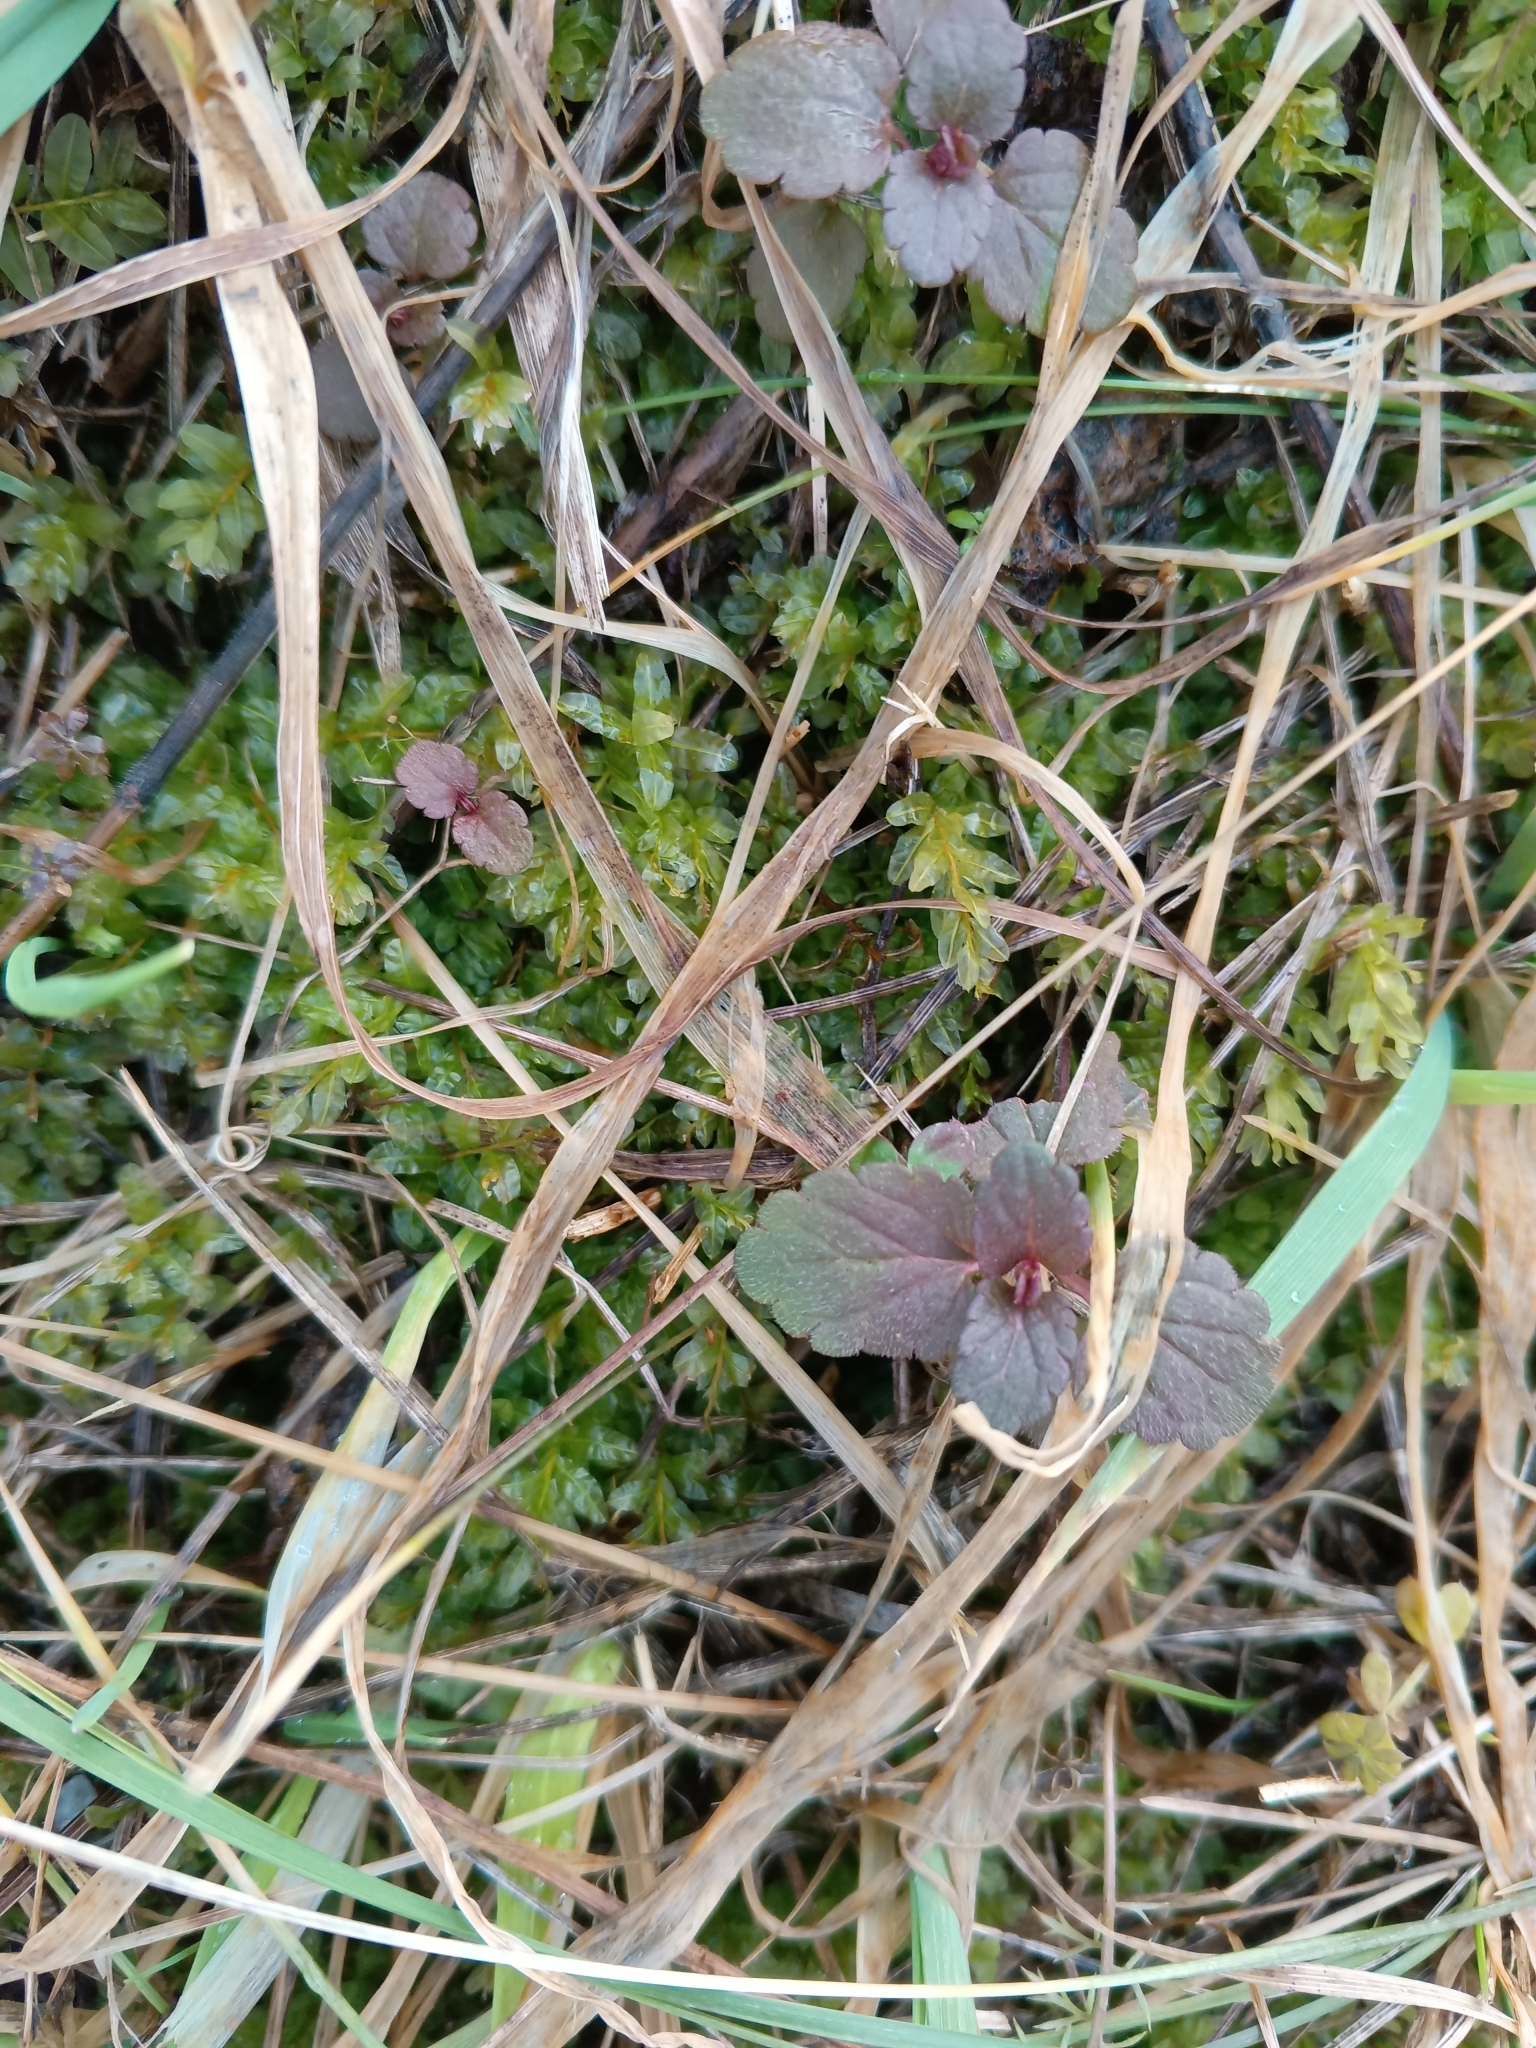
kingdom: Plantae
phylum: Tracheophyta
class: Magnoliopsida
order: Lamiales
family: Plantaginaceae
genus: Veronica
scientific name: Veronica chamaedrys
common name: Germander speedwell
